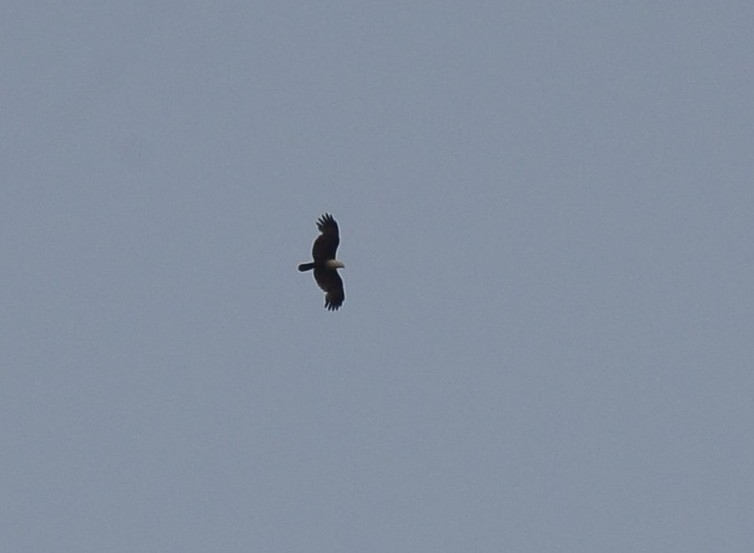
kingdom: Animalia
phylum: Chordata
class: Aves
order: Accipitriformes
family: Accipitridae
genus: Haliastur
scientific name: Haliastur indus
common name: Brahminy kite
